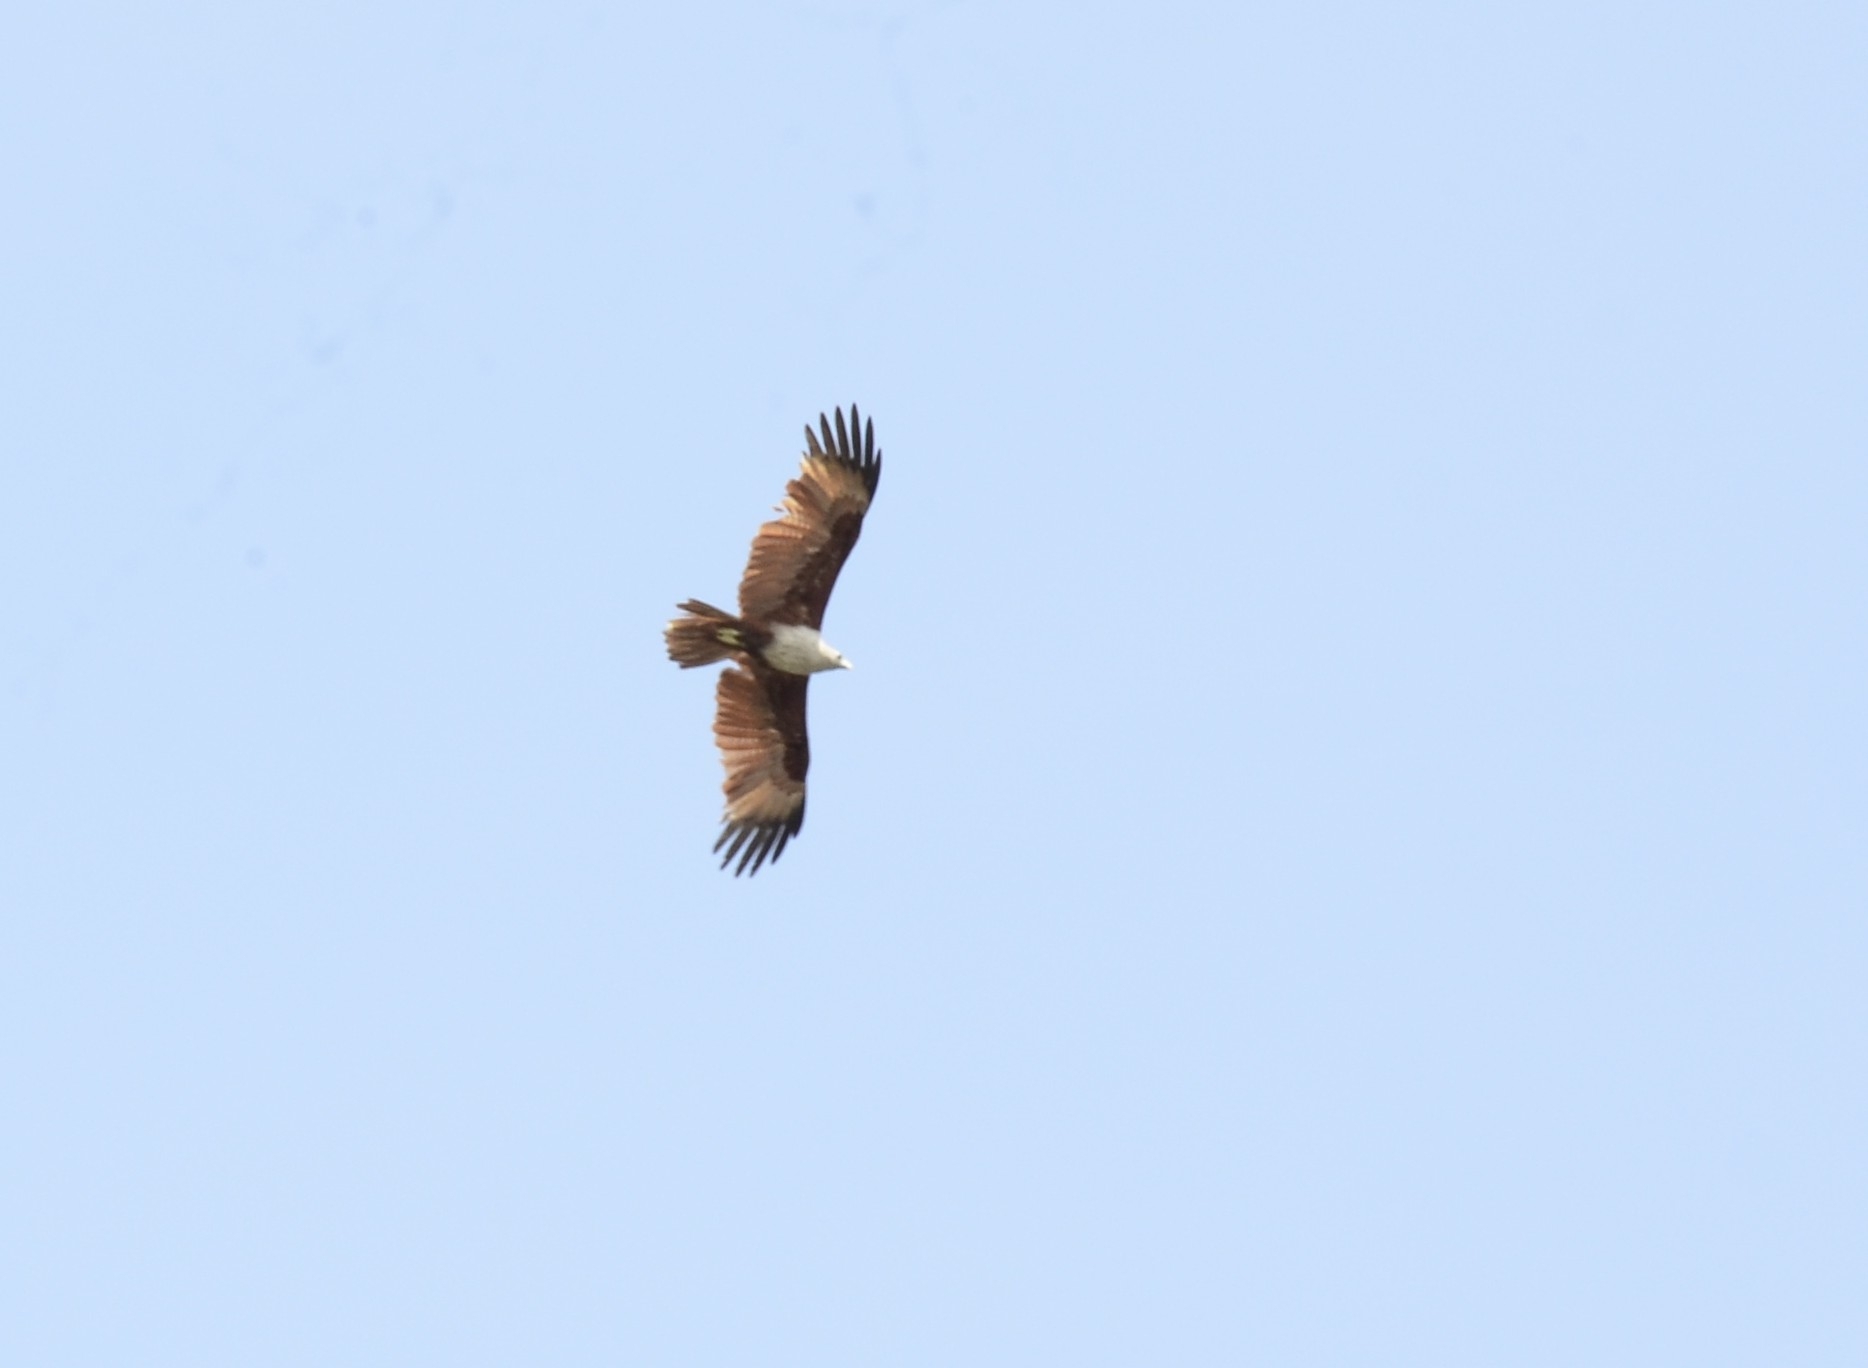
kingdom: Animalia
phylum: Chordata
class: Aves
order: Accipitriformes
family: Accipitridae
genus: Haliastur
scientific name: Haliastur indus
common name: Brahminy kite
